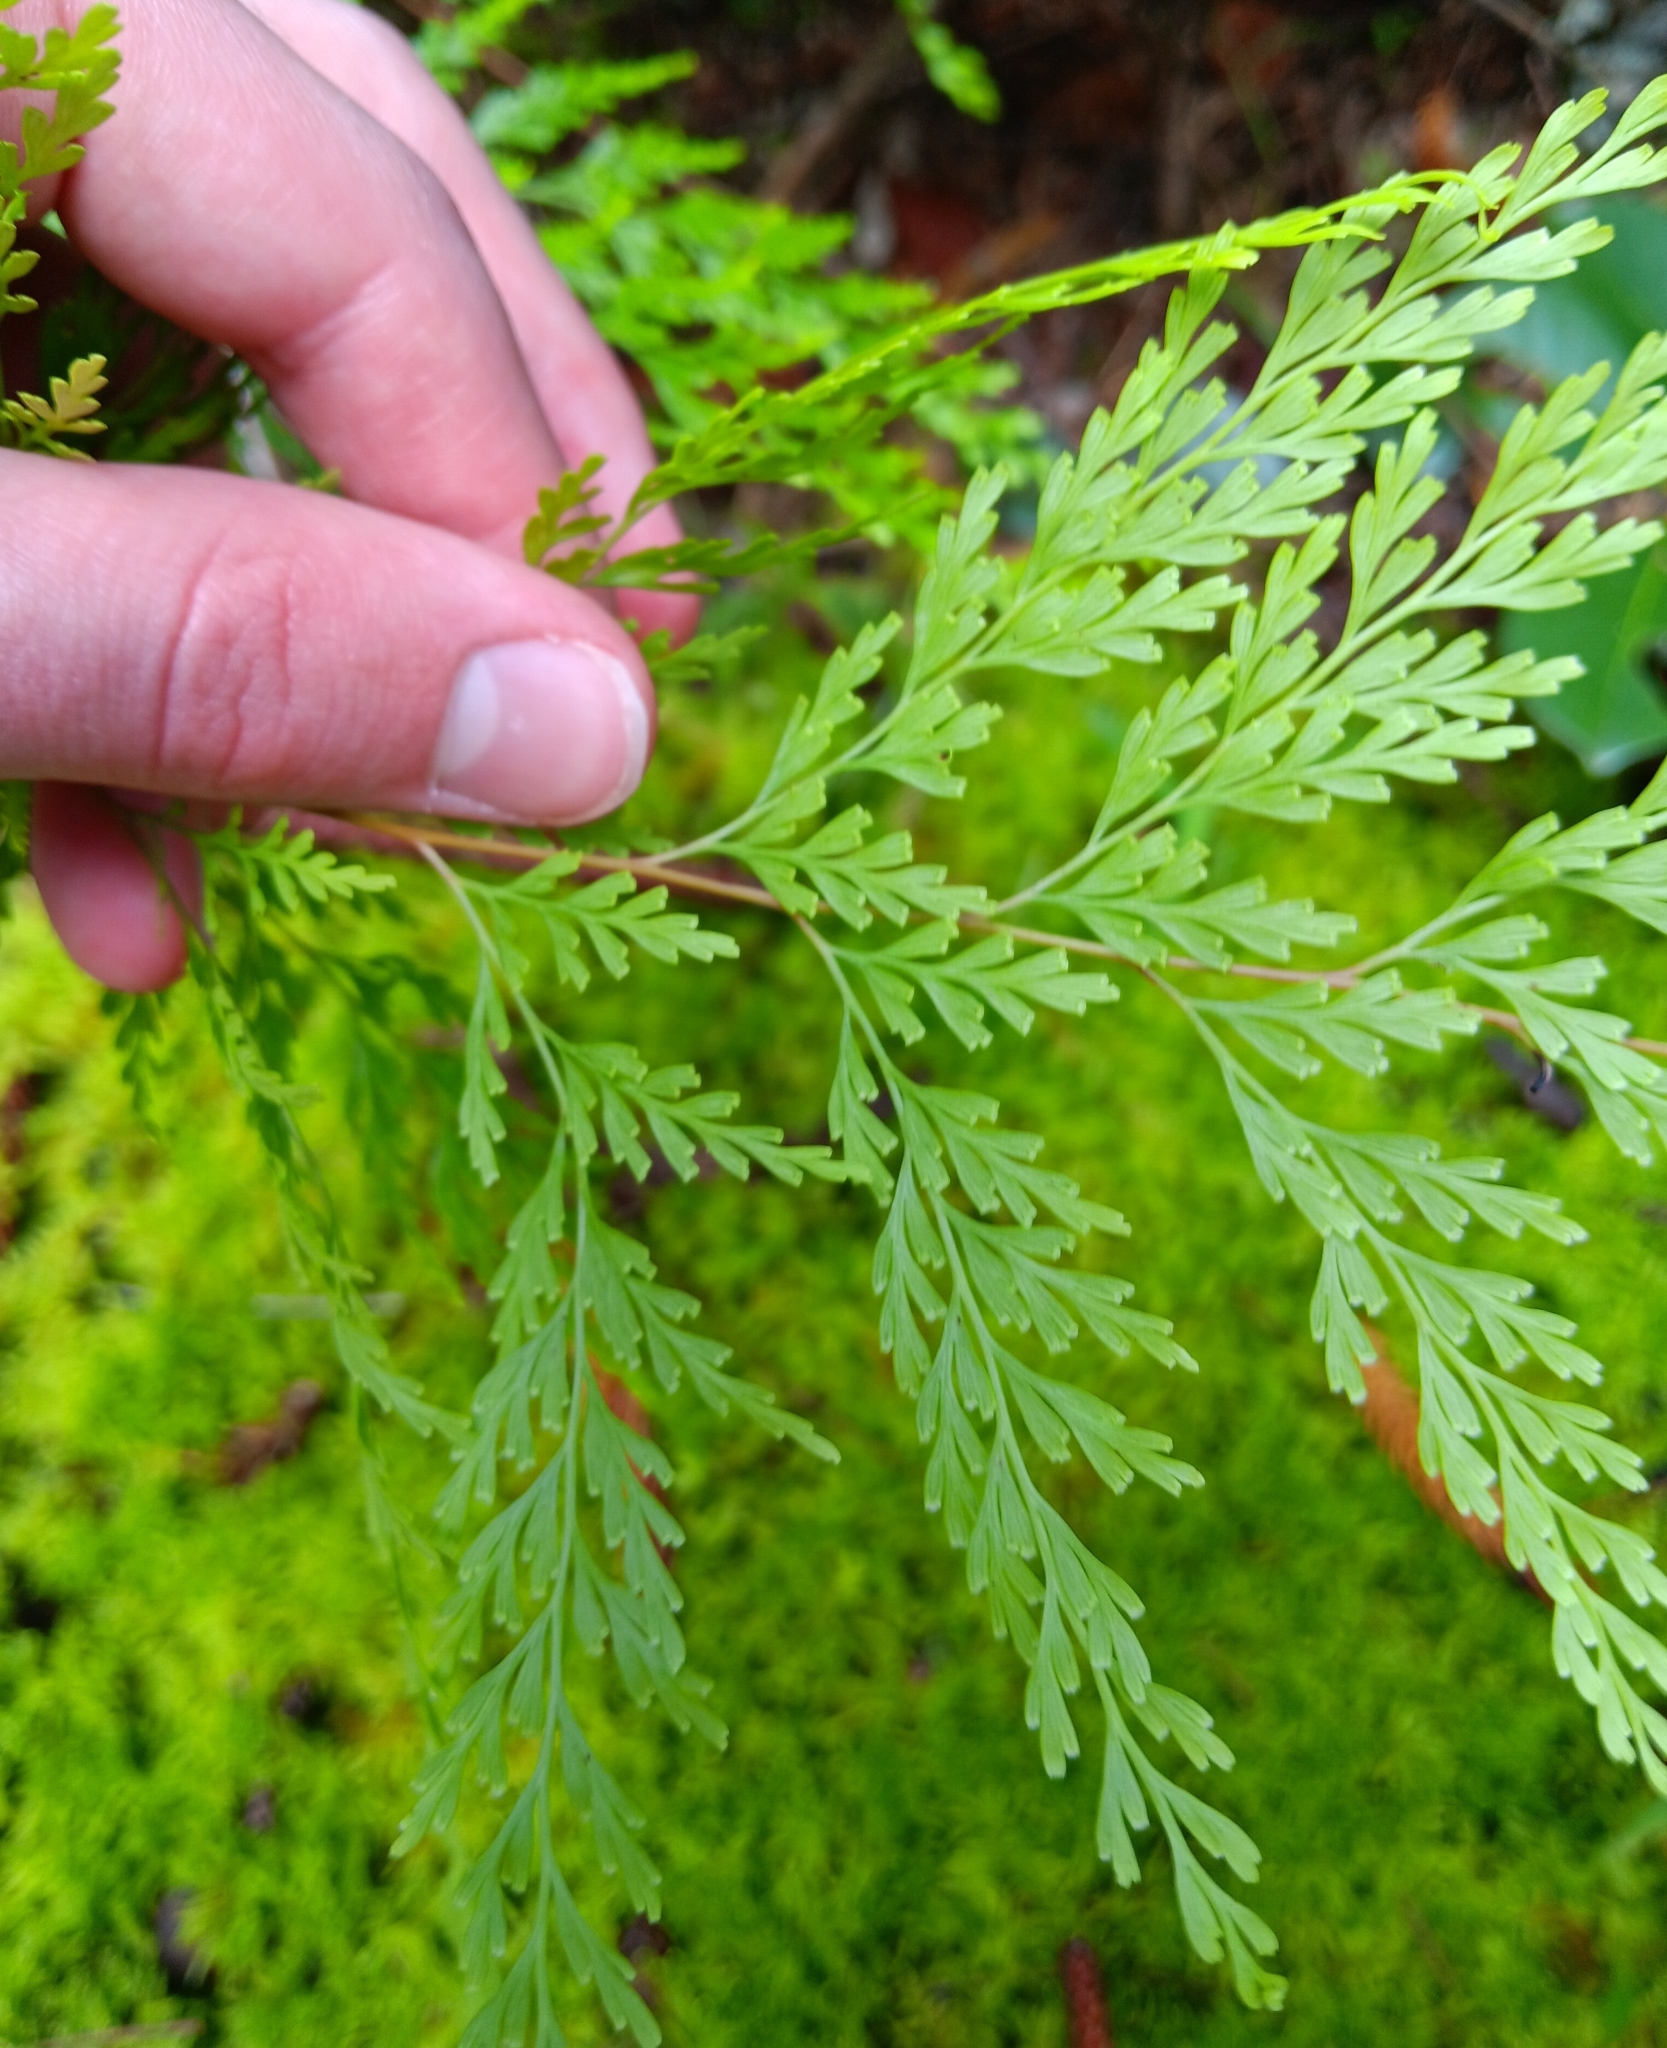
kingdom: Plantae
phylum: Tracheophyta
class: Polypodiopsida
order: Polypodiales
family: Lindsaeaceae
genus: Odontosoria
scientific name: Odontosoria chinensis
